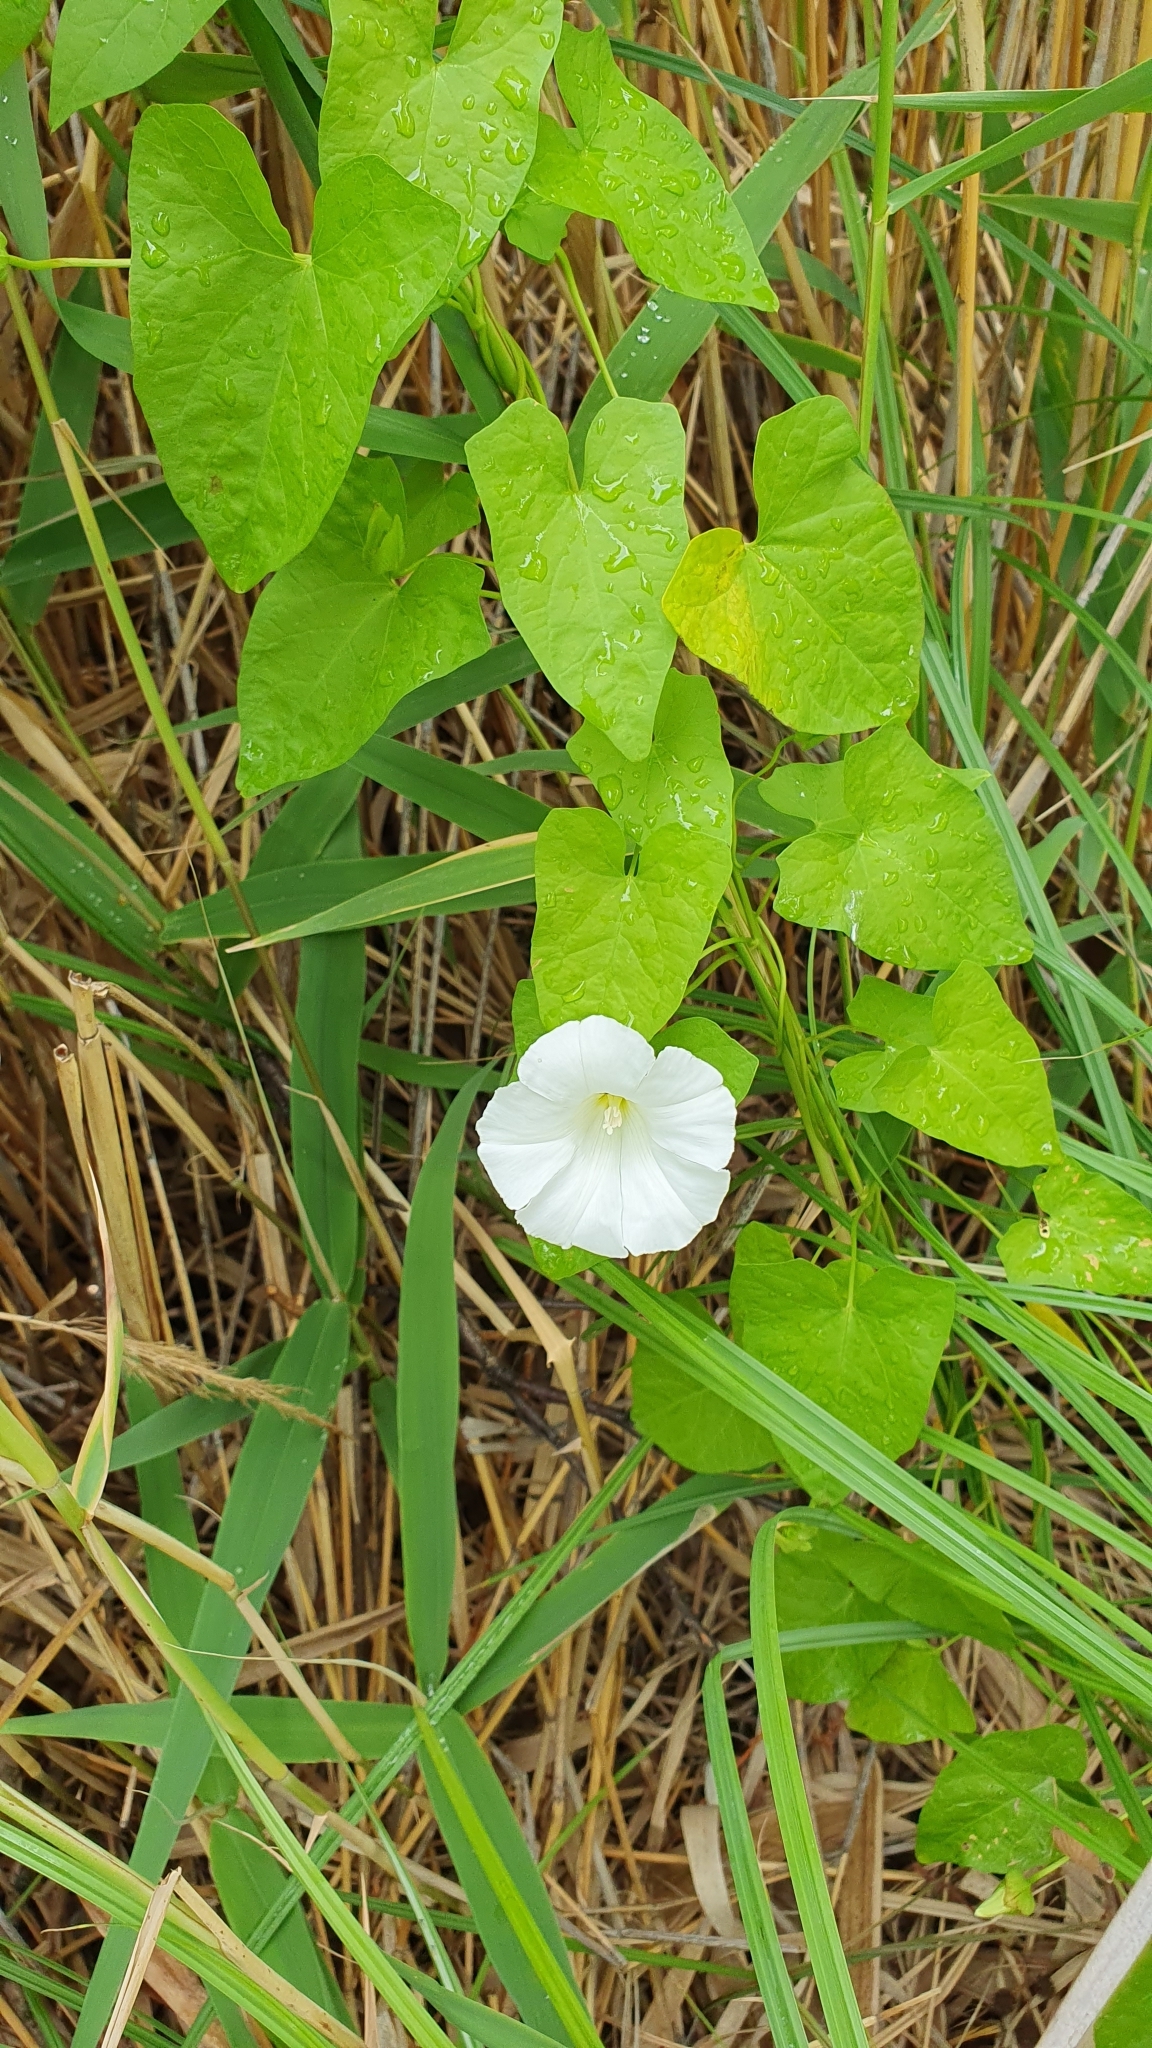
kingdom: Plantae
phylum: Tracheophyta
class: Magnoliopsida
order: Solanales
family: Convolvulaceae
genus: Calystegia
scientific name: Calystegia sepium
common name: Hedge bindweed
